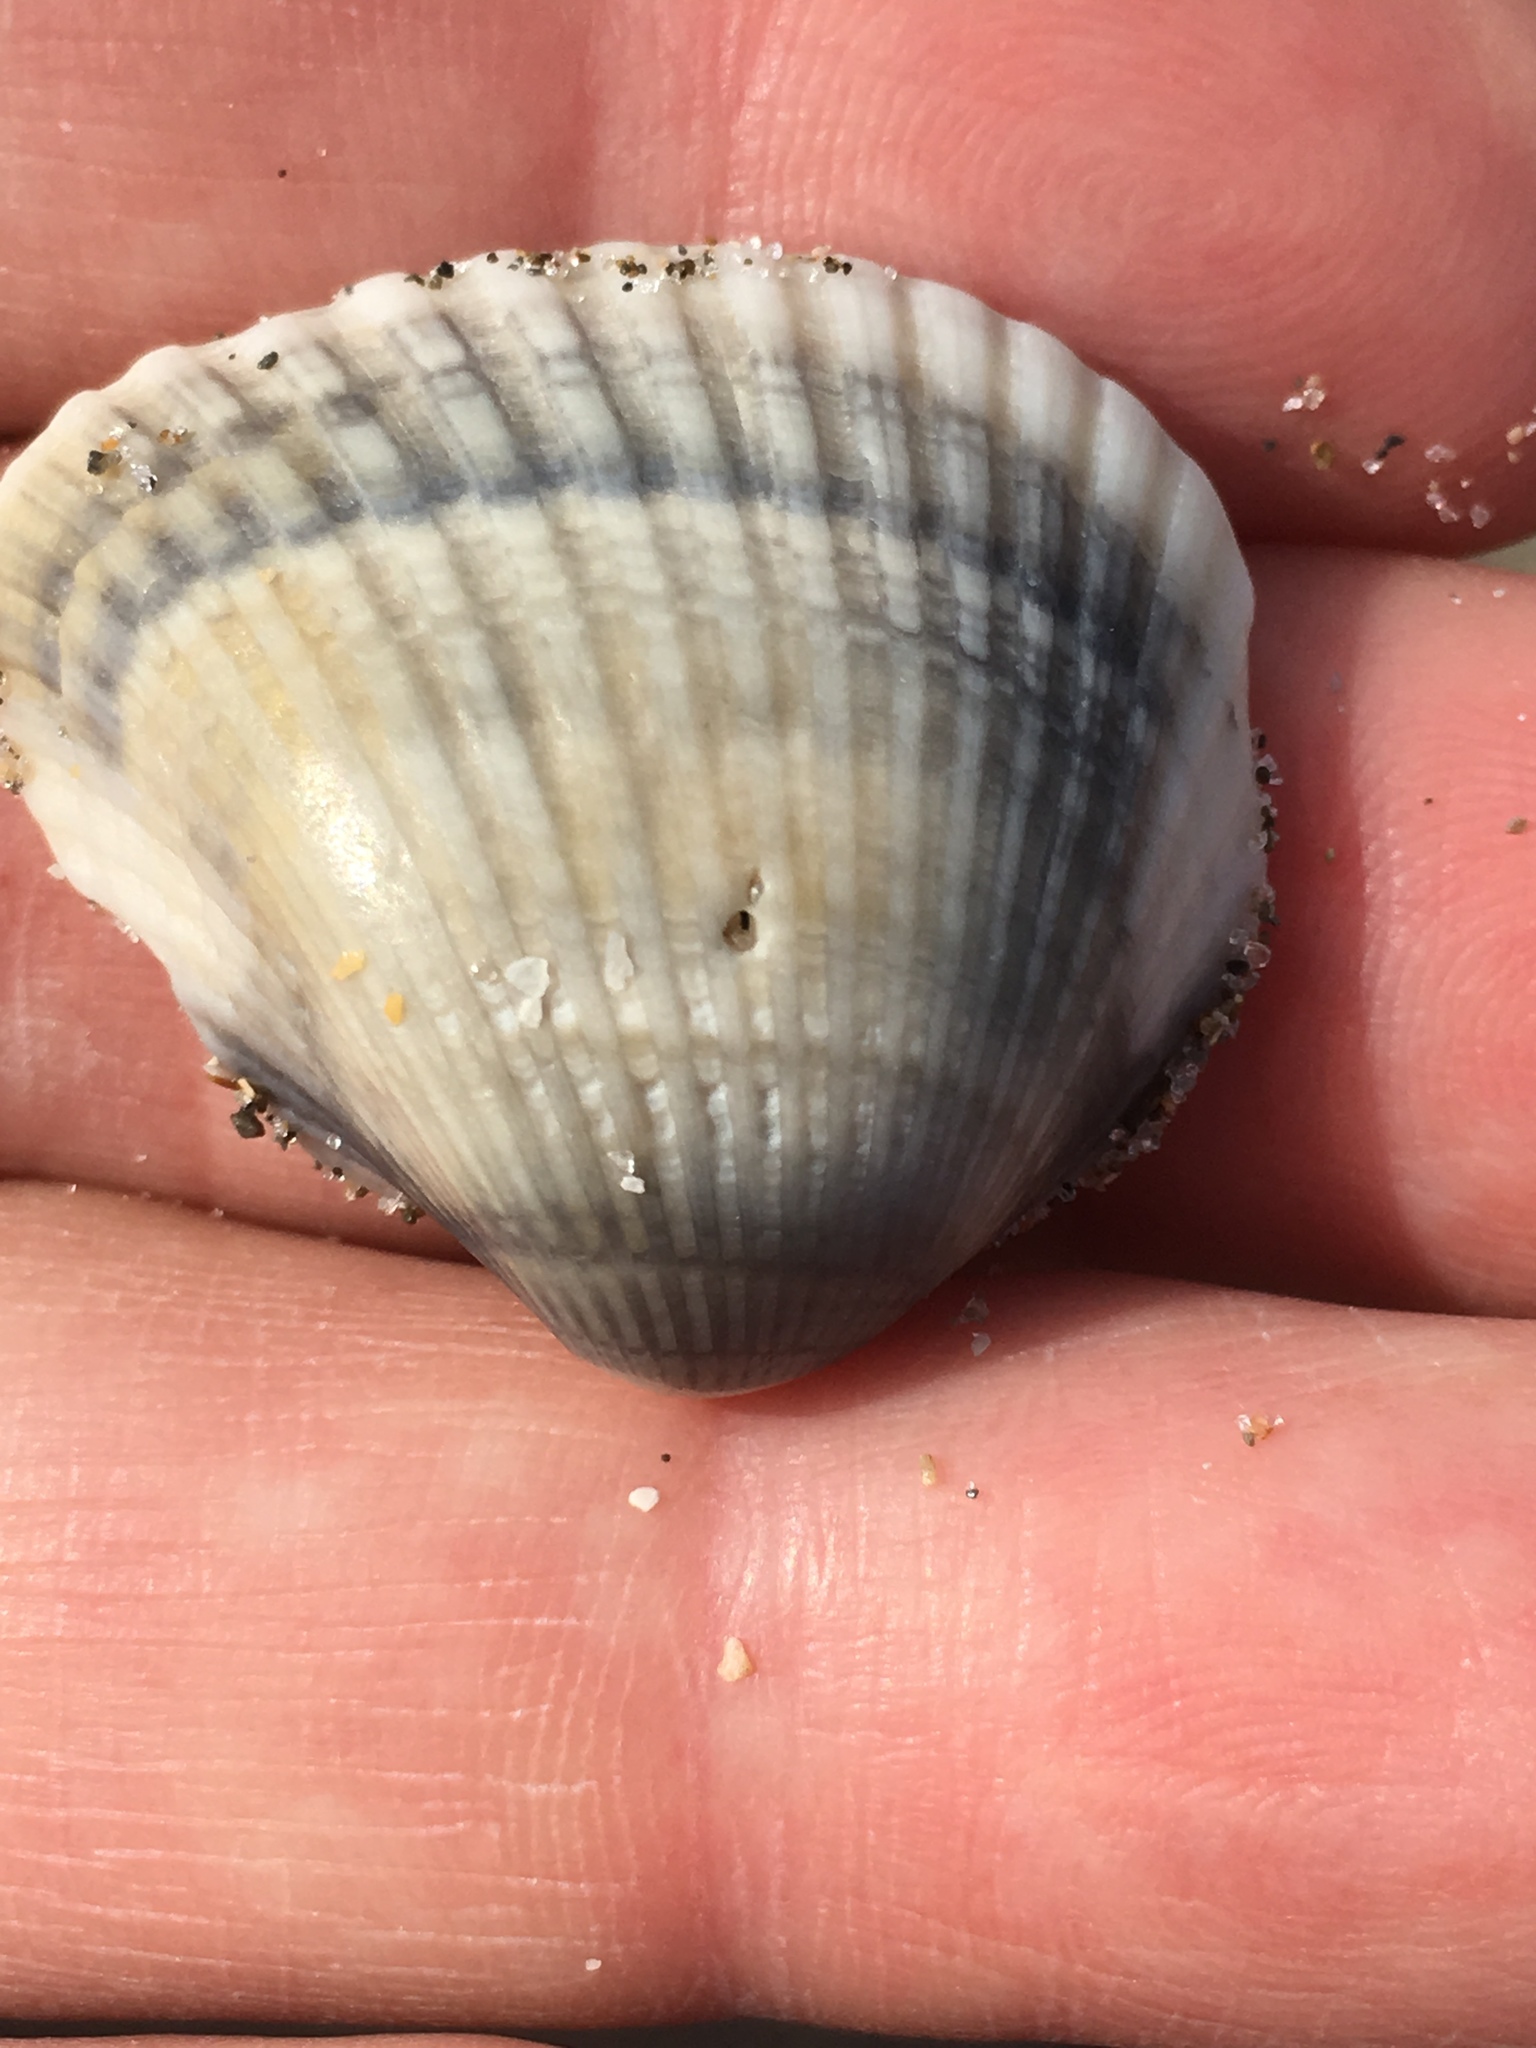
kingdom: Animalia
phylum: Mollusca
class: Bivalvia
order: Arcida
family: Noetiidae
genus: Noetia
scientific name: Noetia ponderosa
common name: Ponderous ark
